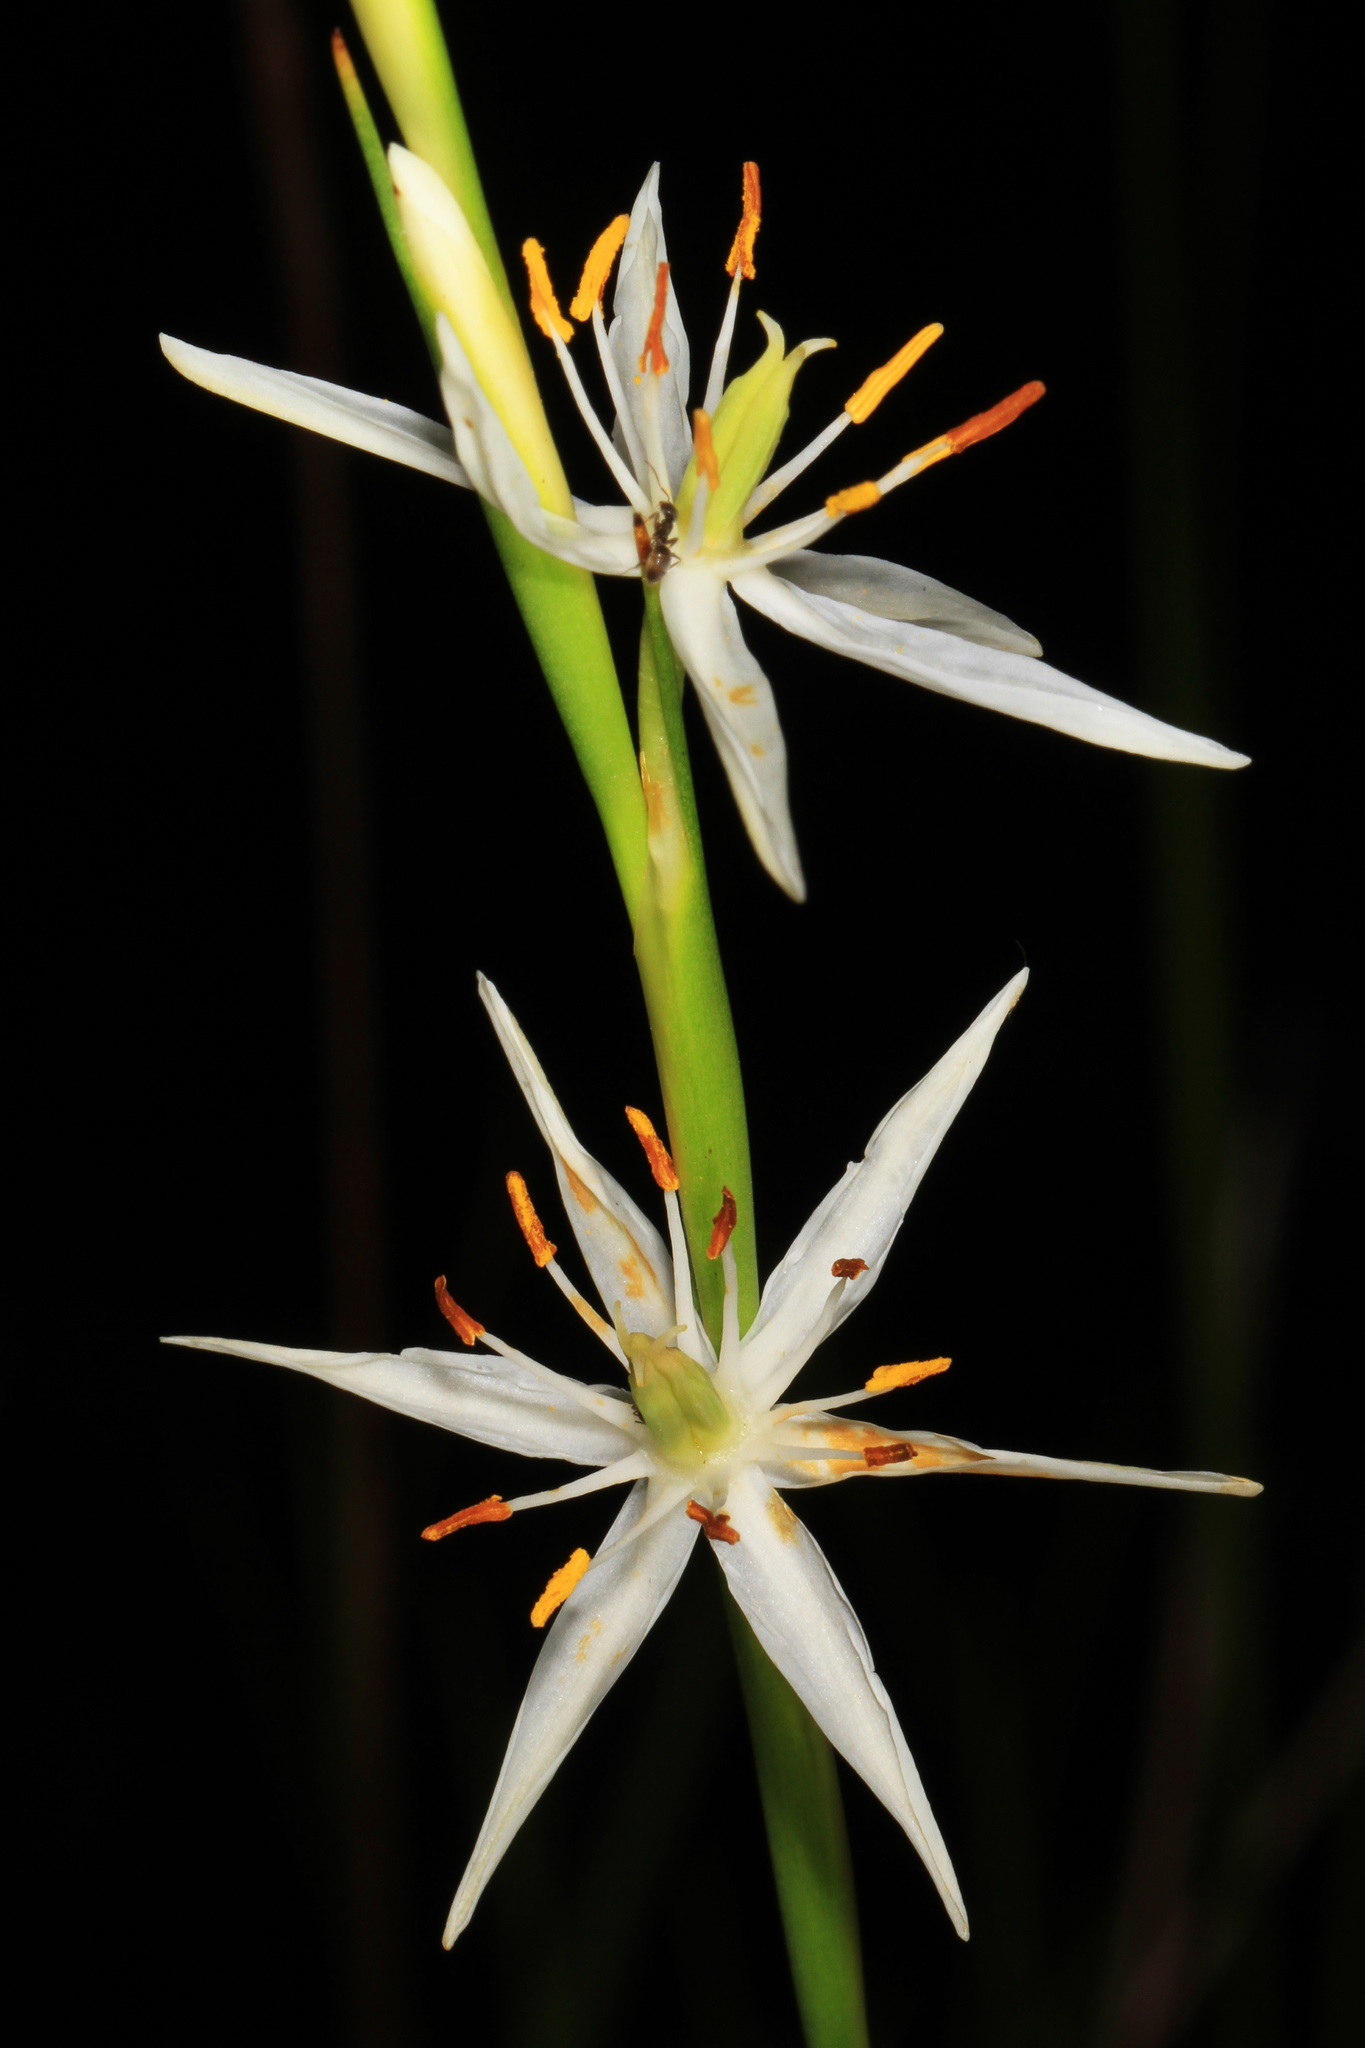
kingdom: Plantae
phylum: Tracheophyta
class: Liliopsida
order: Alismatales
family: Tofieldiaceae
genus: Pleea
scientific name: Pleea tenuifolia
